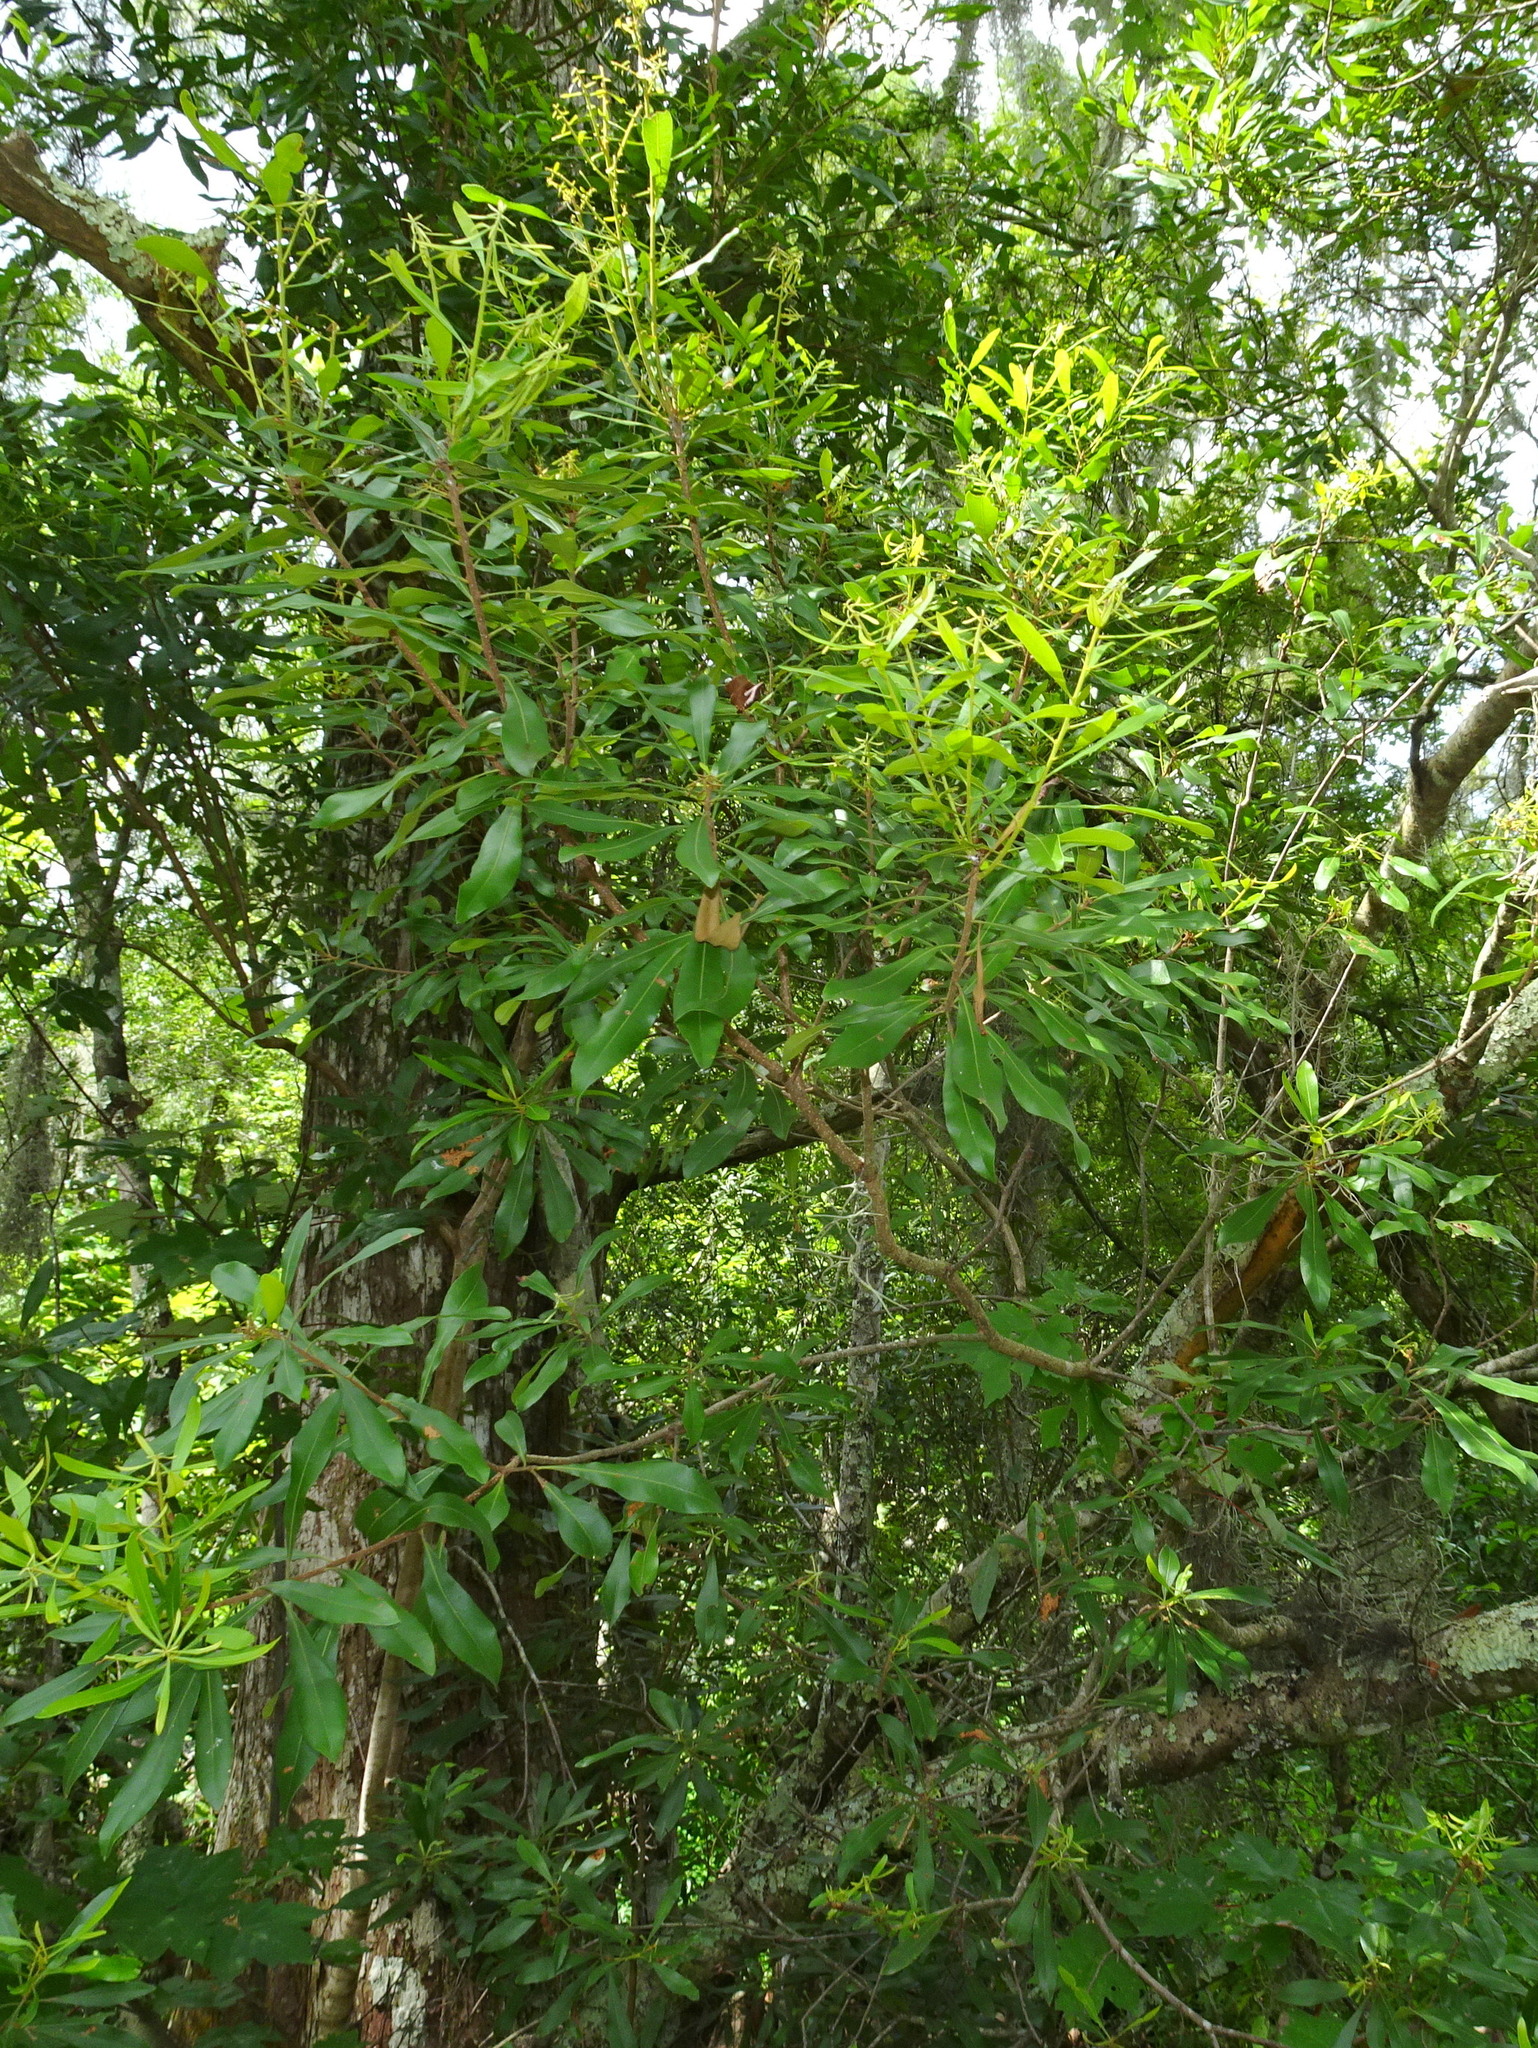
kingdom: Plantae
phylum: Tracheophyta
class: Magnoliopsida
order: Fagales
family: Myricaceae
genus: Morella
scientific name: Morella cerifera
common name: Wax myrtle
